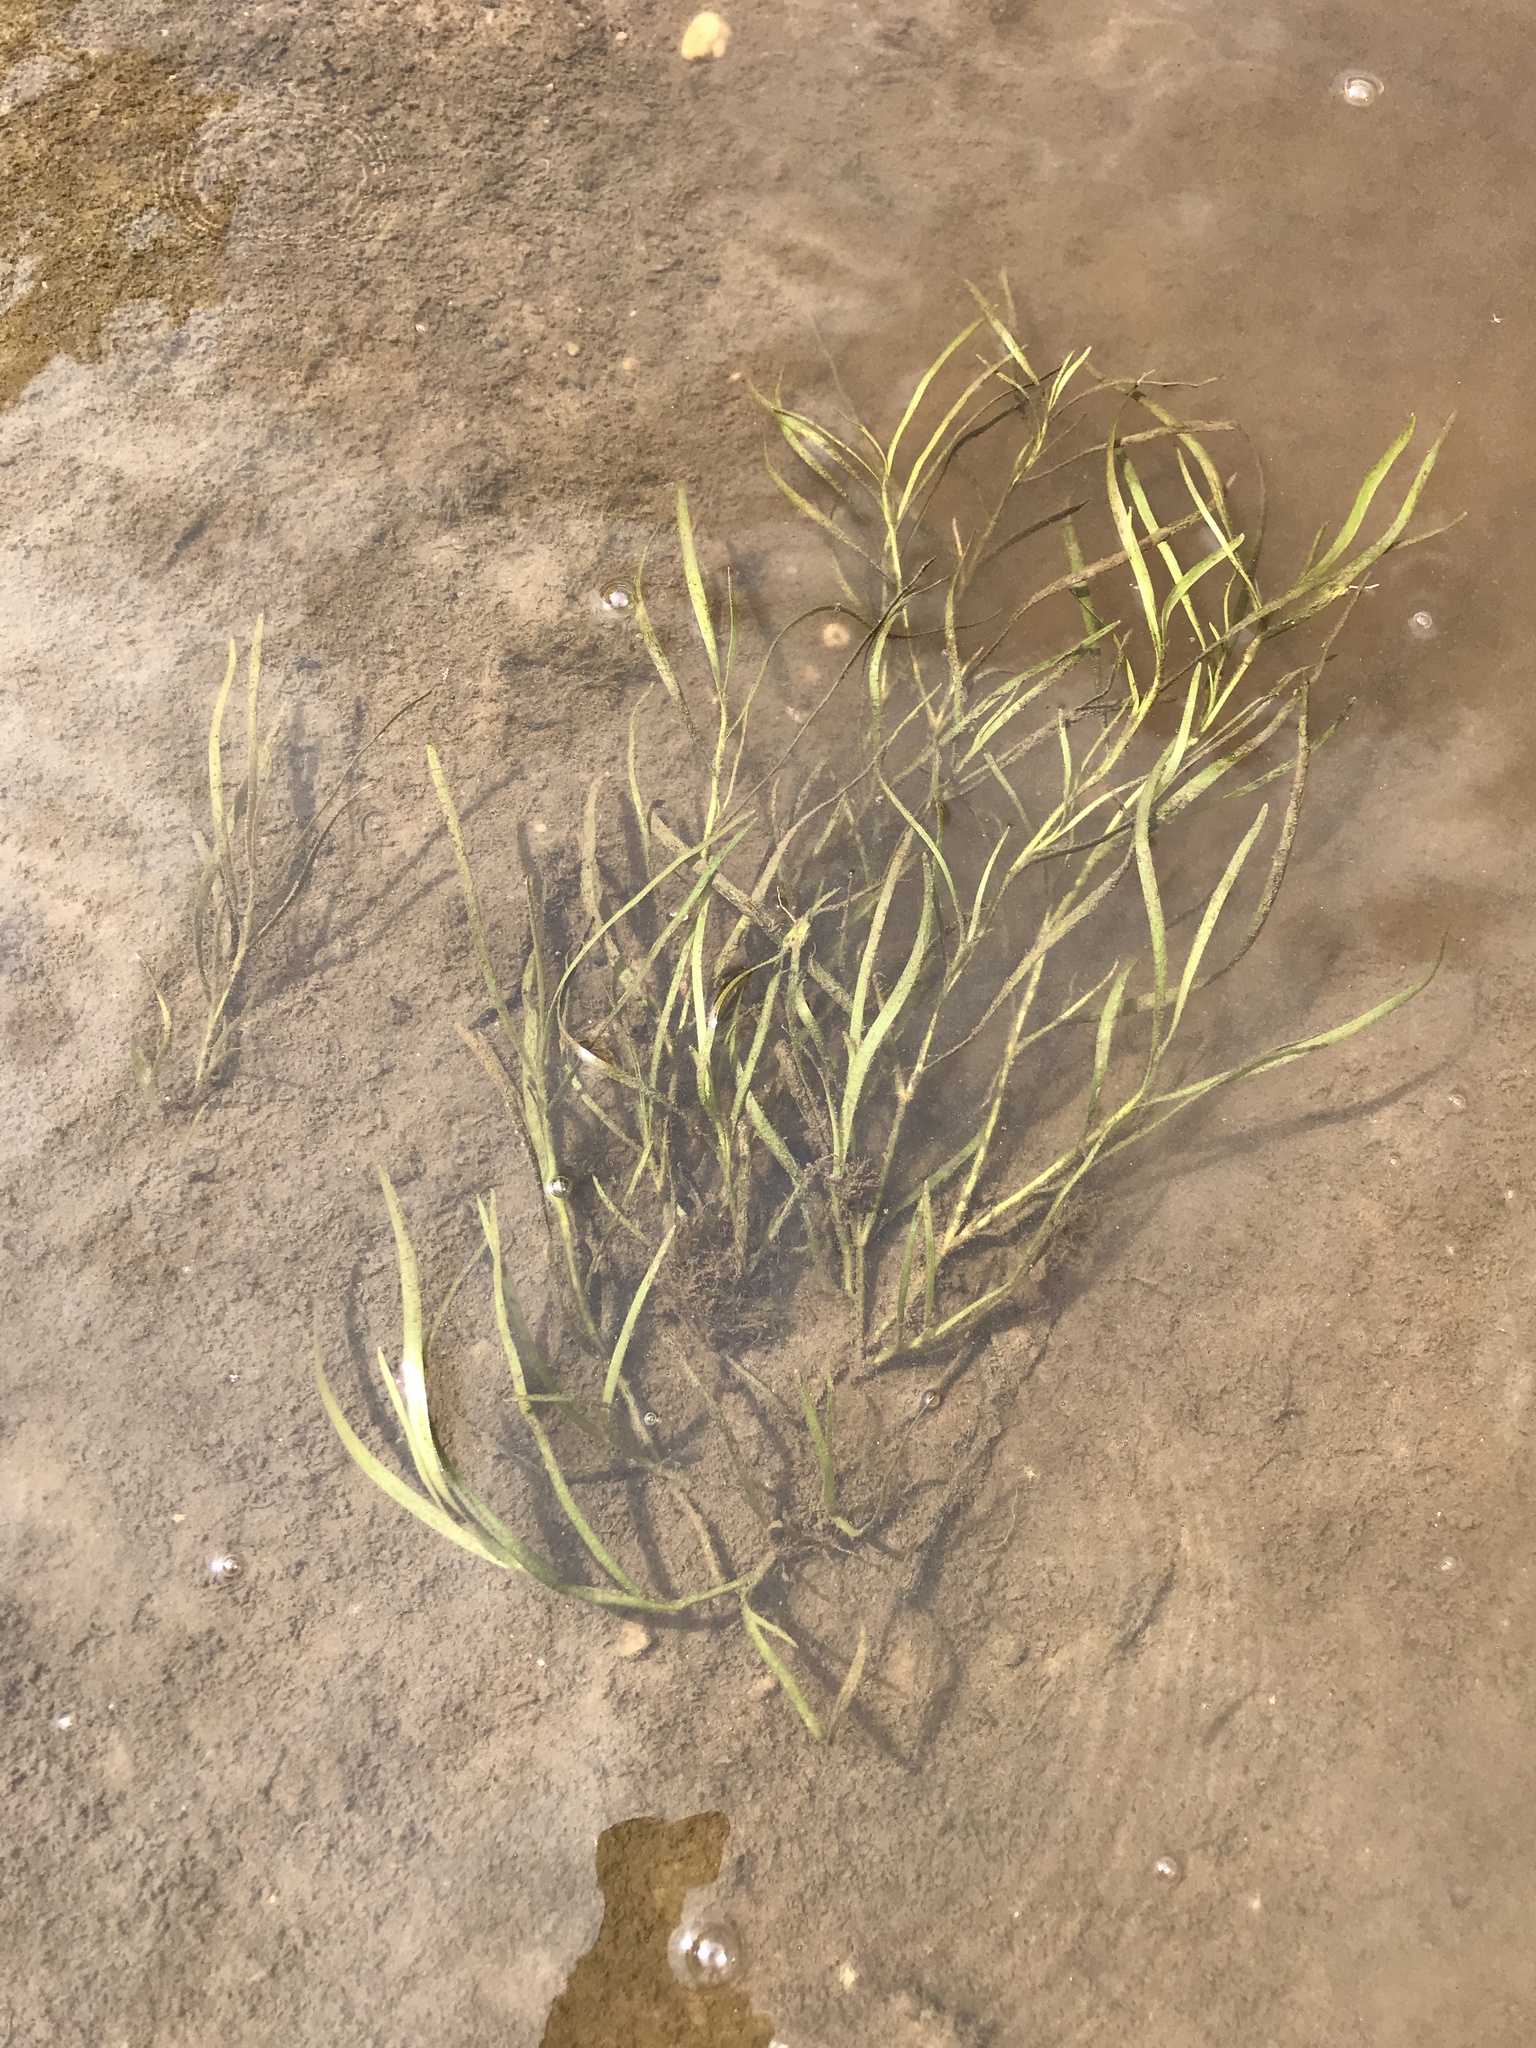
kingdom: Plantae
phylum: Tracheophyta
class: Liliopsida
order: Commelinales
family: Pontederiaceae
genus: Heteranthera
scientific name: Heteranthera dubia
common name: Grass-leaved mud plantain
